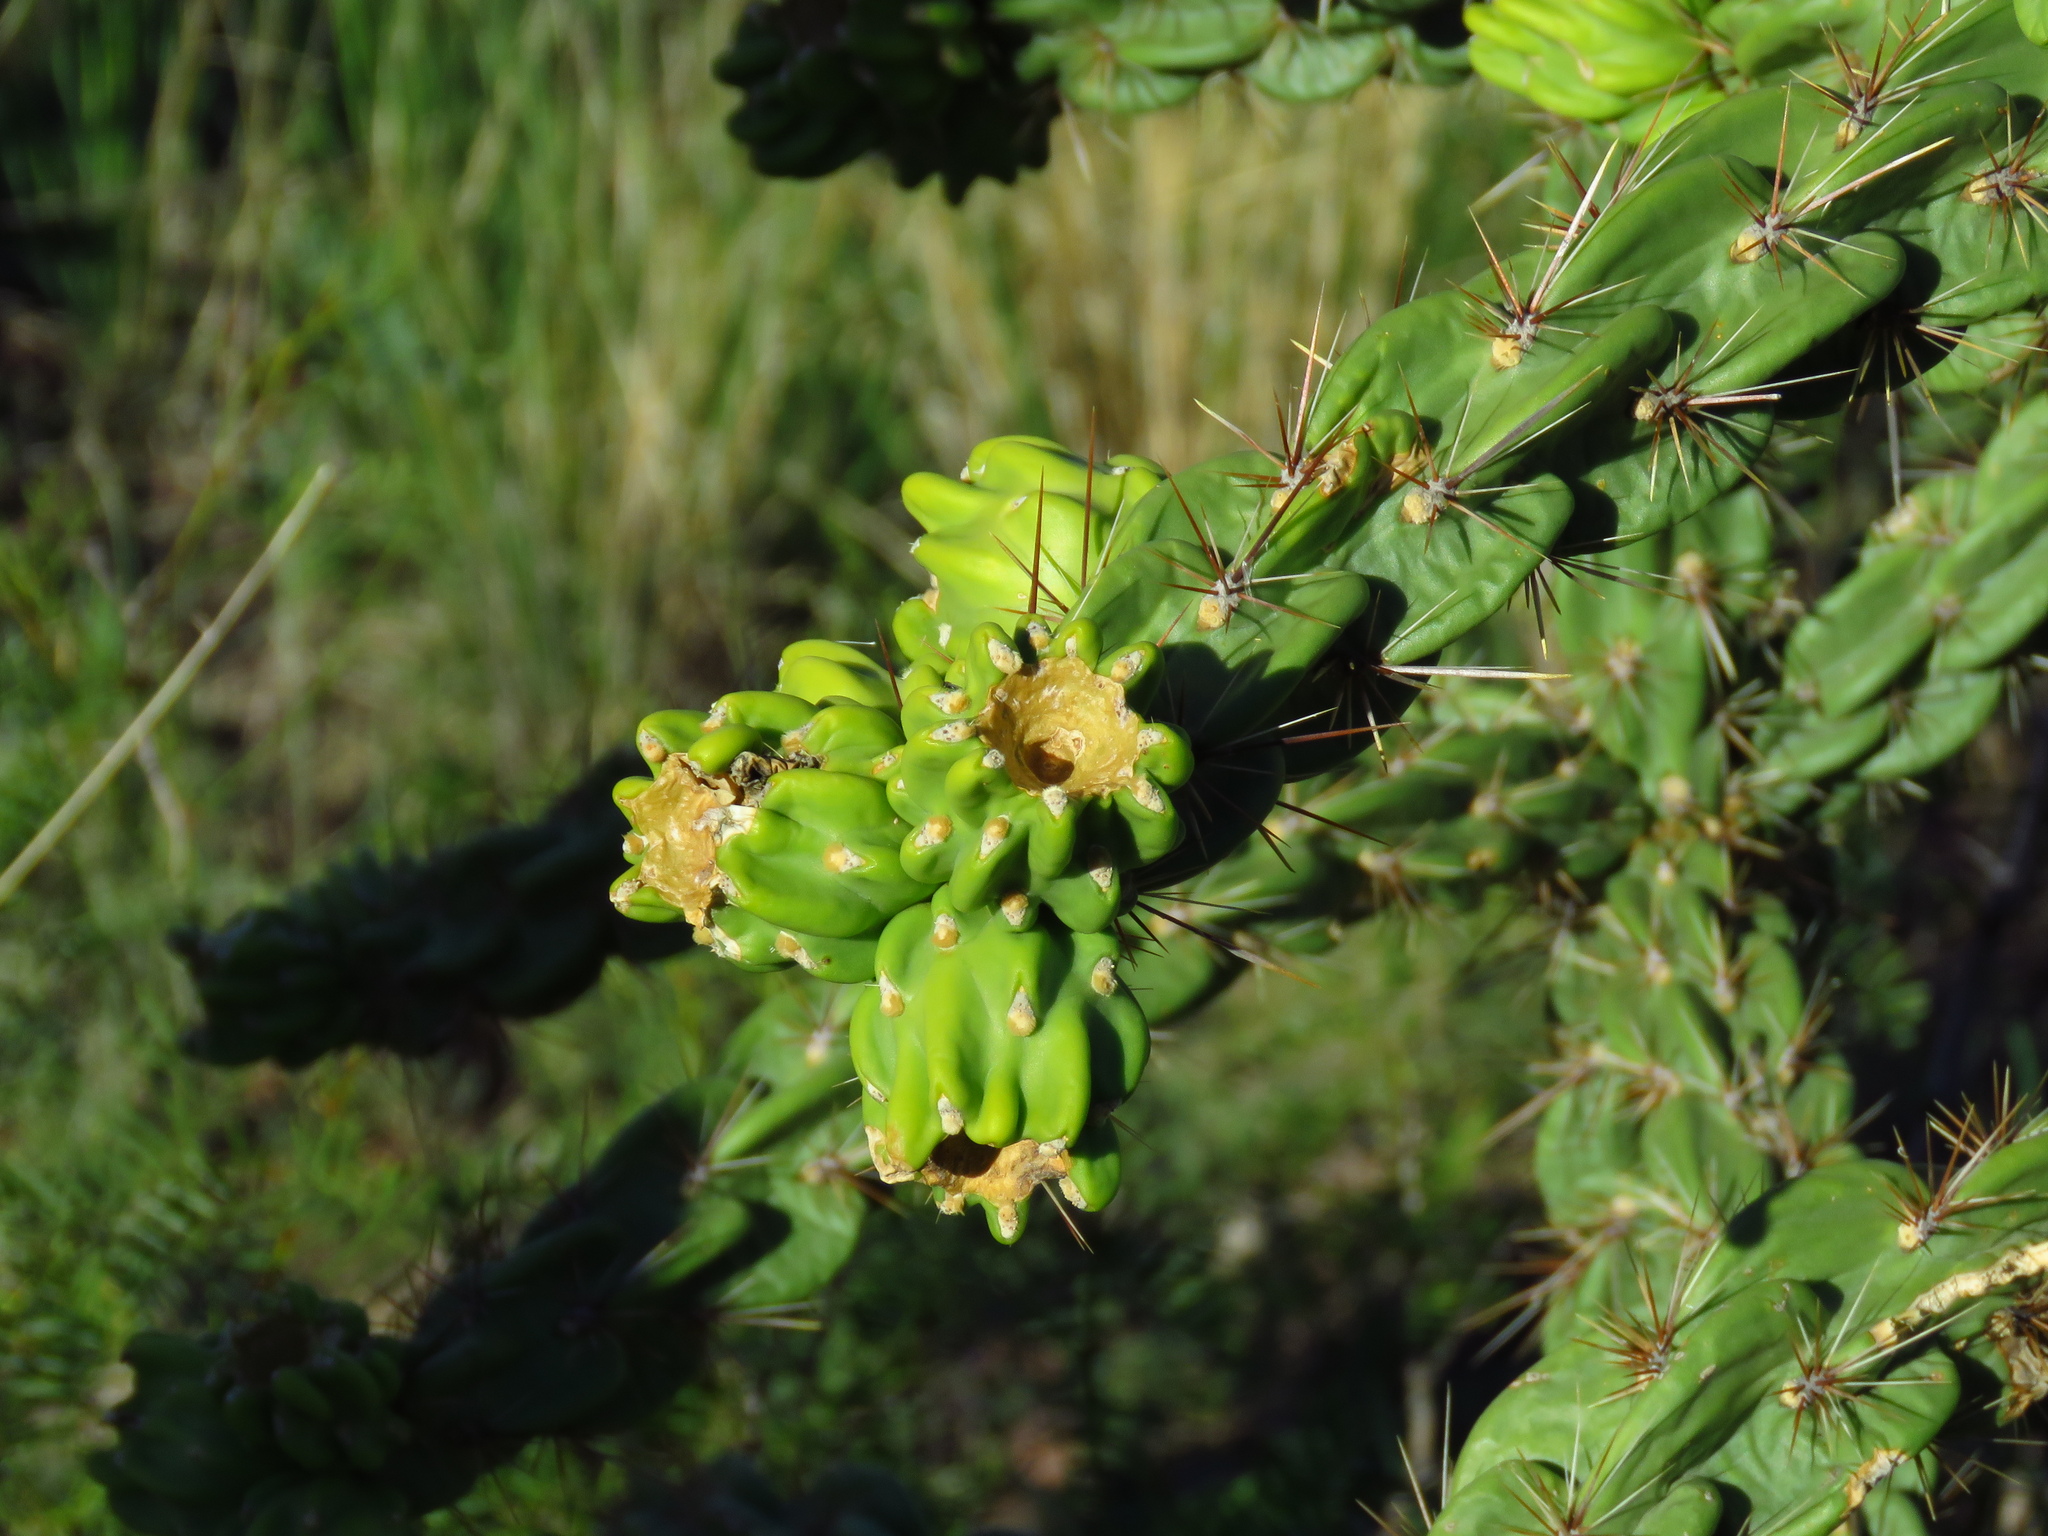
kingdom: Plantae
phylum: Tracheophyta
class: Magnoliopsida
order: Caryophyllales
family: Cactaceae
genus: Cylindropuntia
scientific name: Cylindropuntia imbricata
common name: Candelabrum cactus
